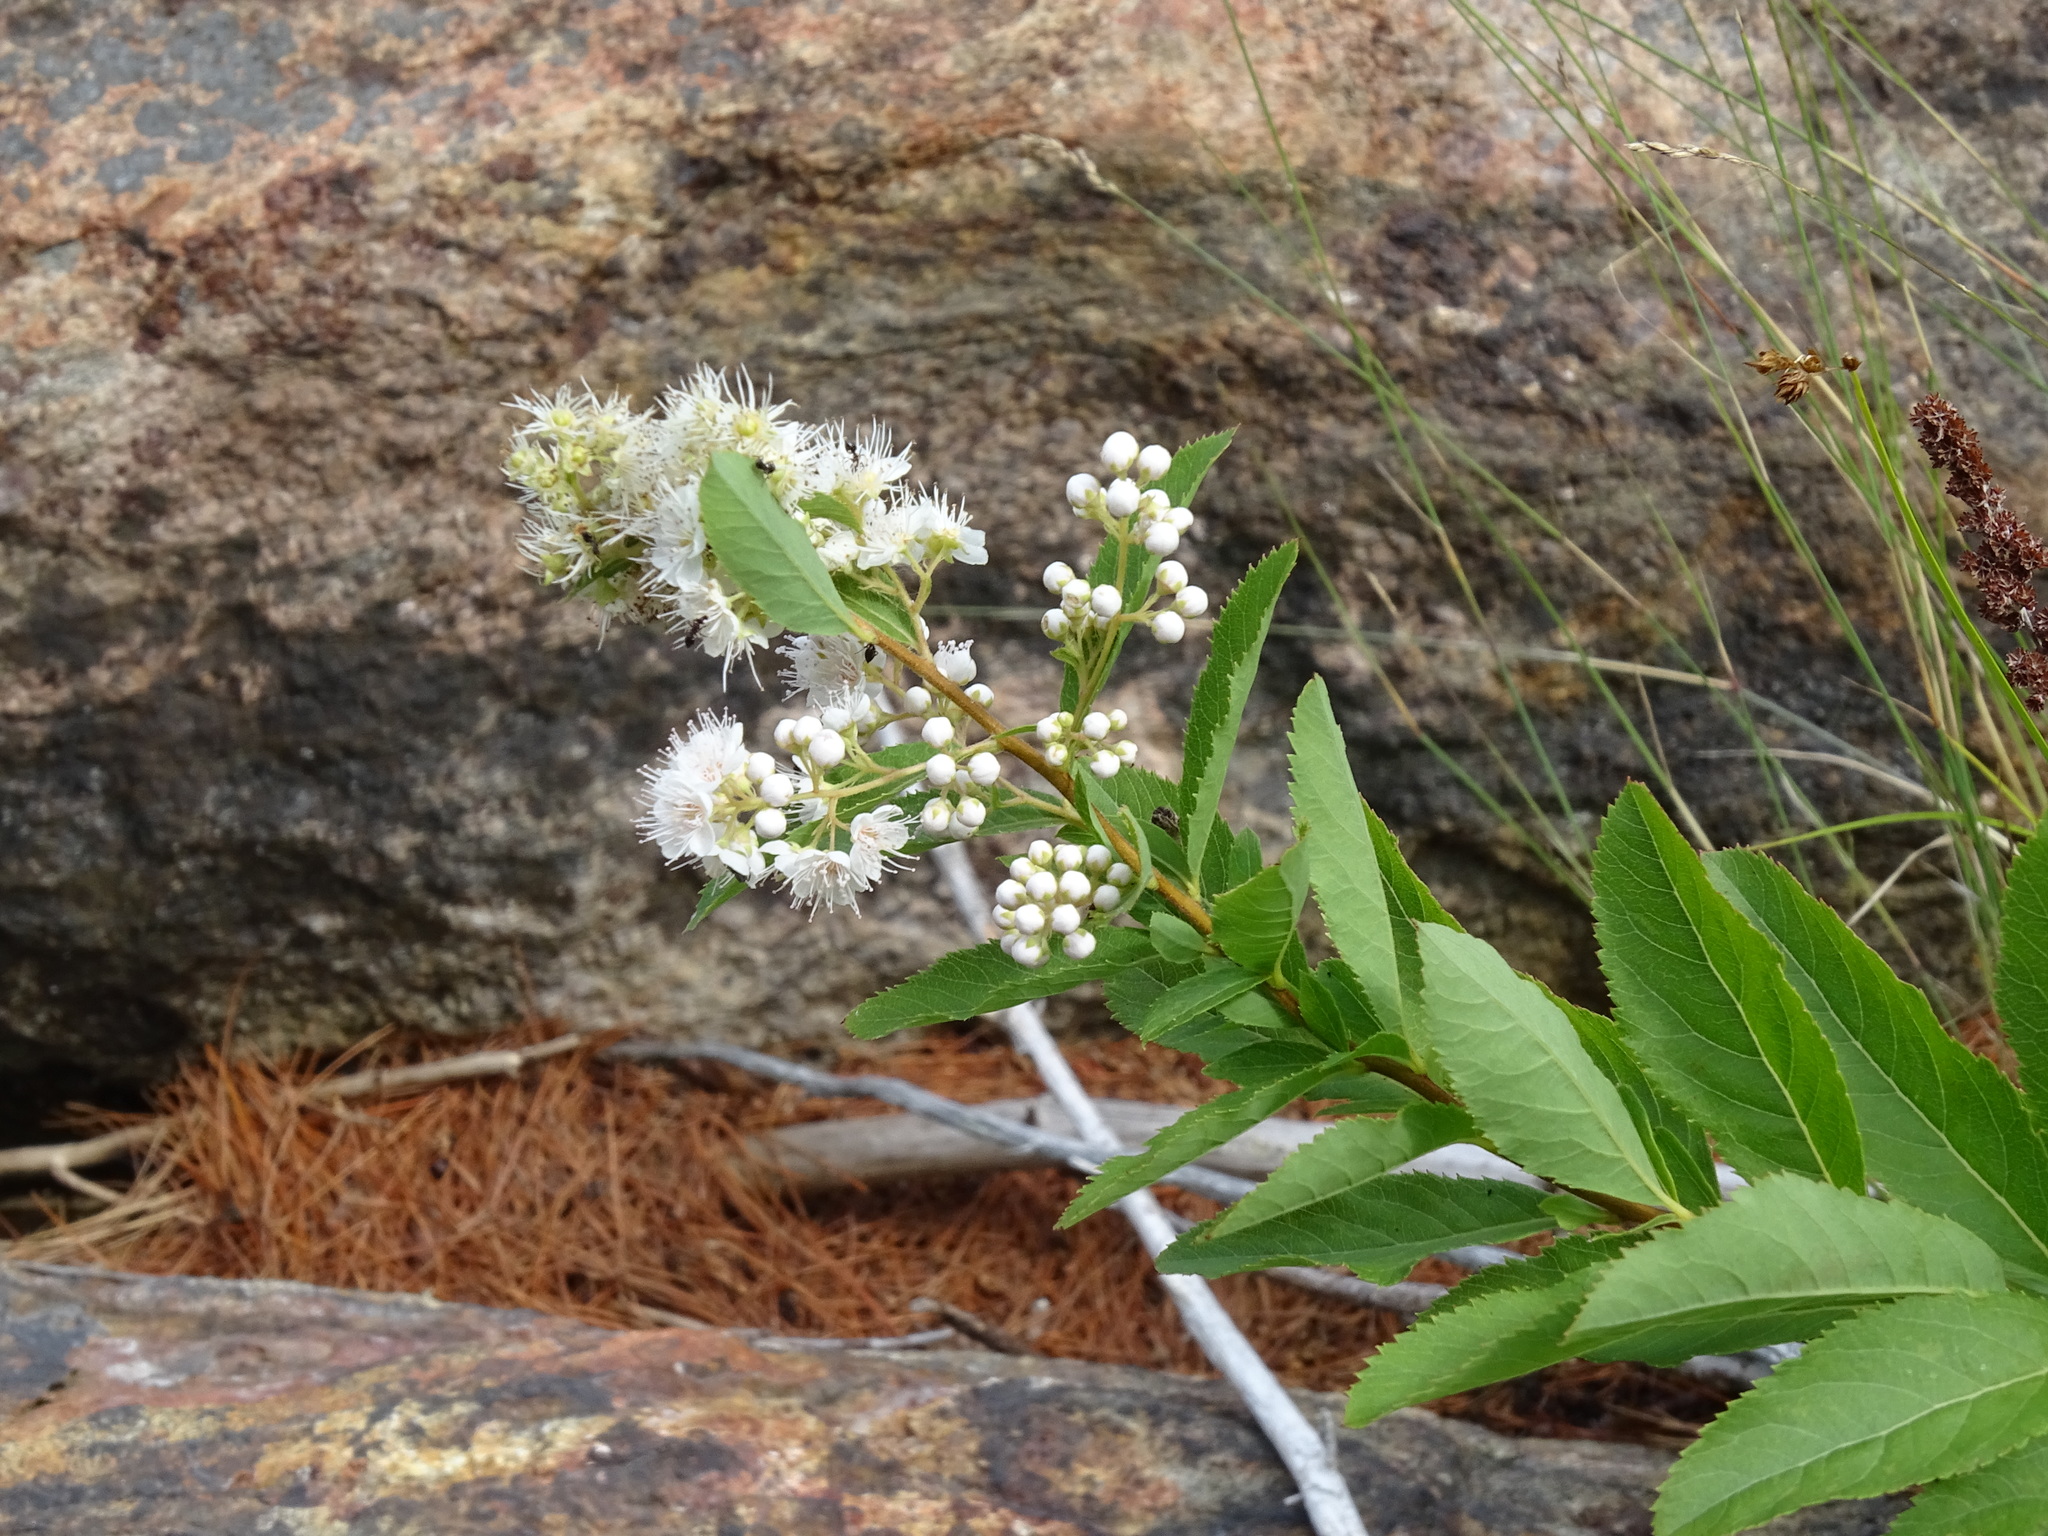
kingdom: Plantae
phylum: Tracheophyta
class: Magnoliopsida
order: Rosales
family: Rosaceae
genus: Spiraea
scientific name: Spiraea alba
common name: Pale bridewort
